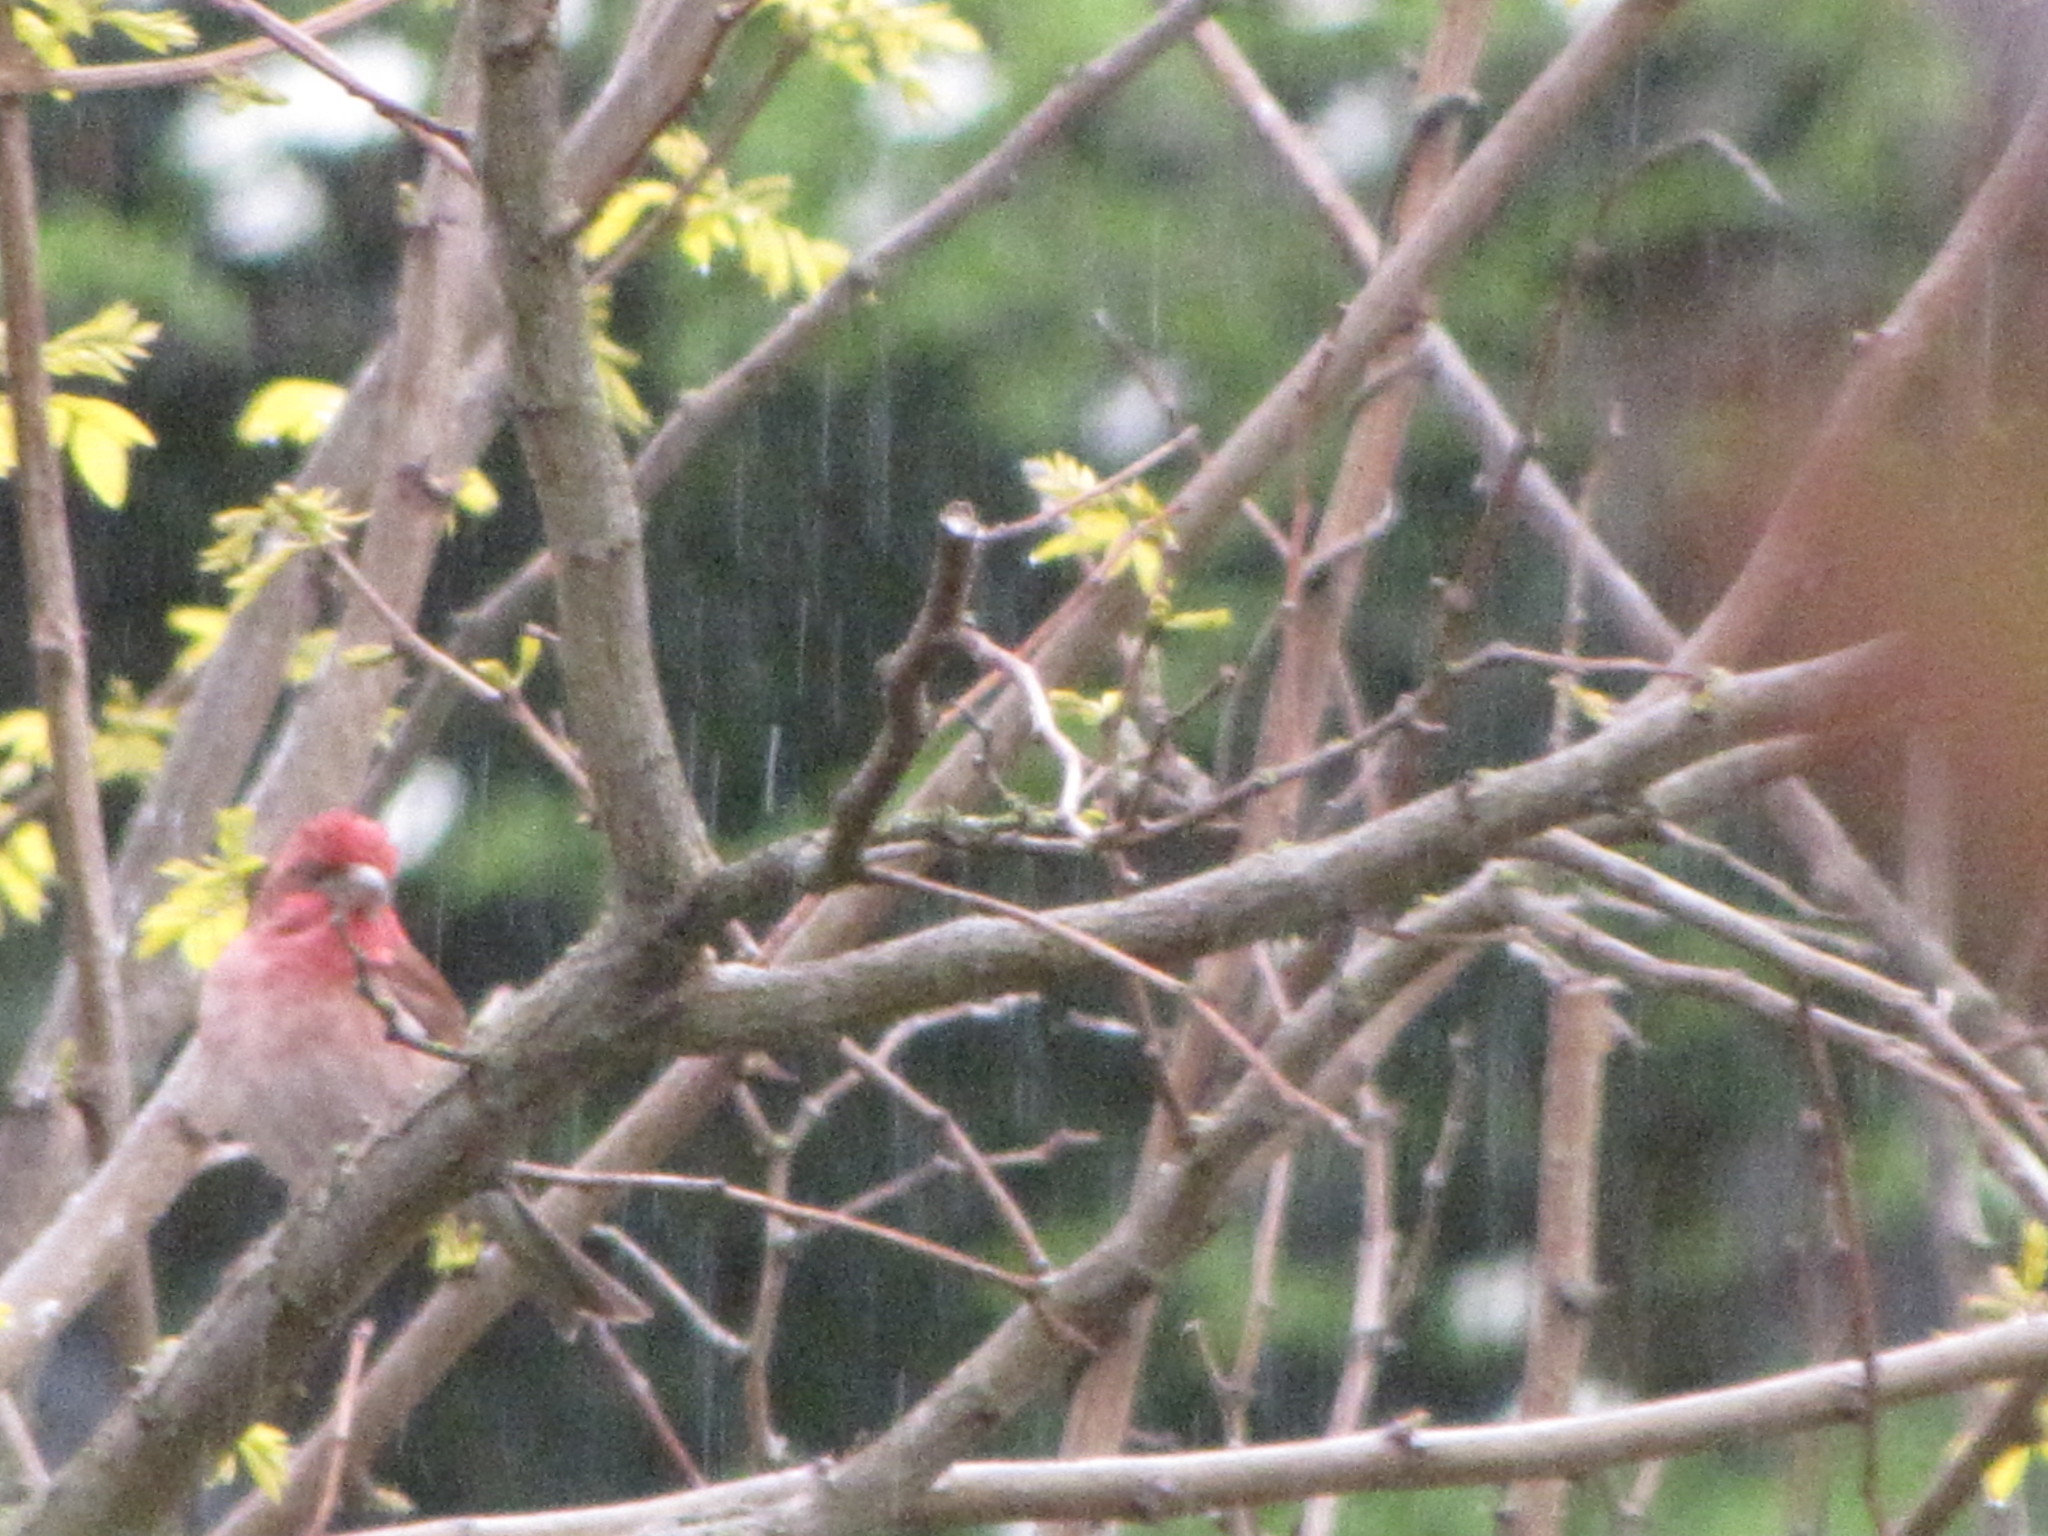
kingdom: Animalia
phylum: Chordata
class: Aves
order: Passeriformes
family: Fringillidae
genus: Haemorhous
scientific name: Haemorhous purpureus
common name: Purple finch
